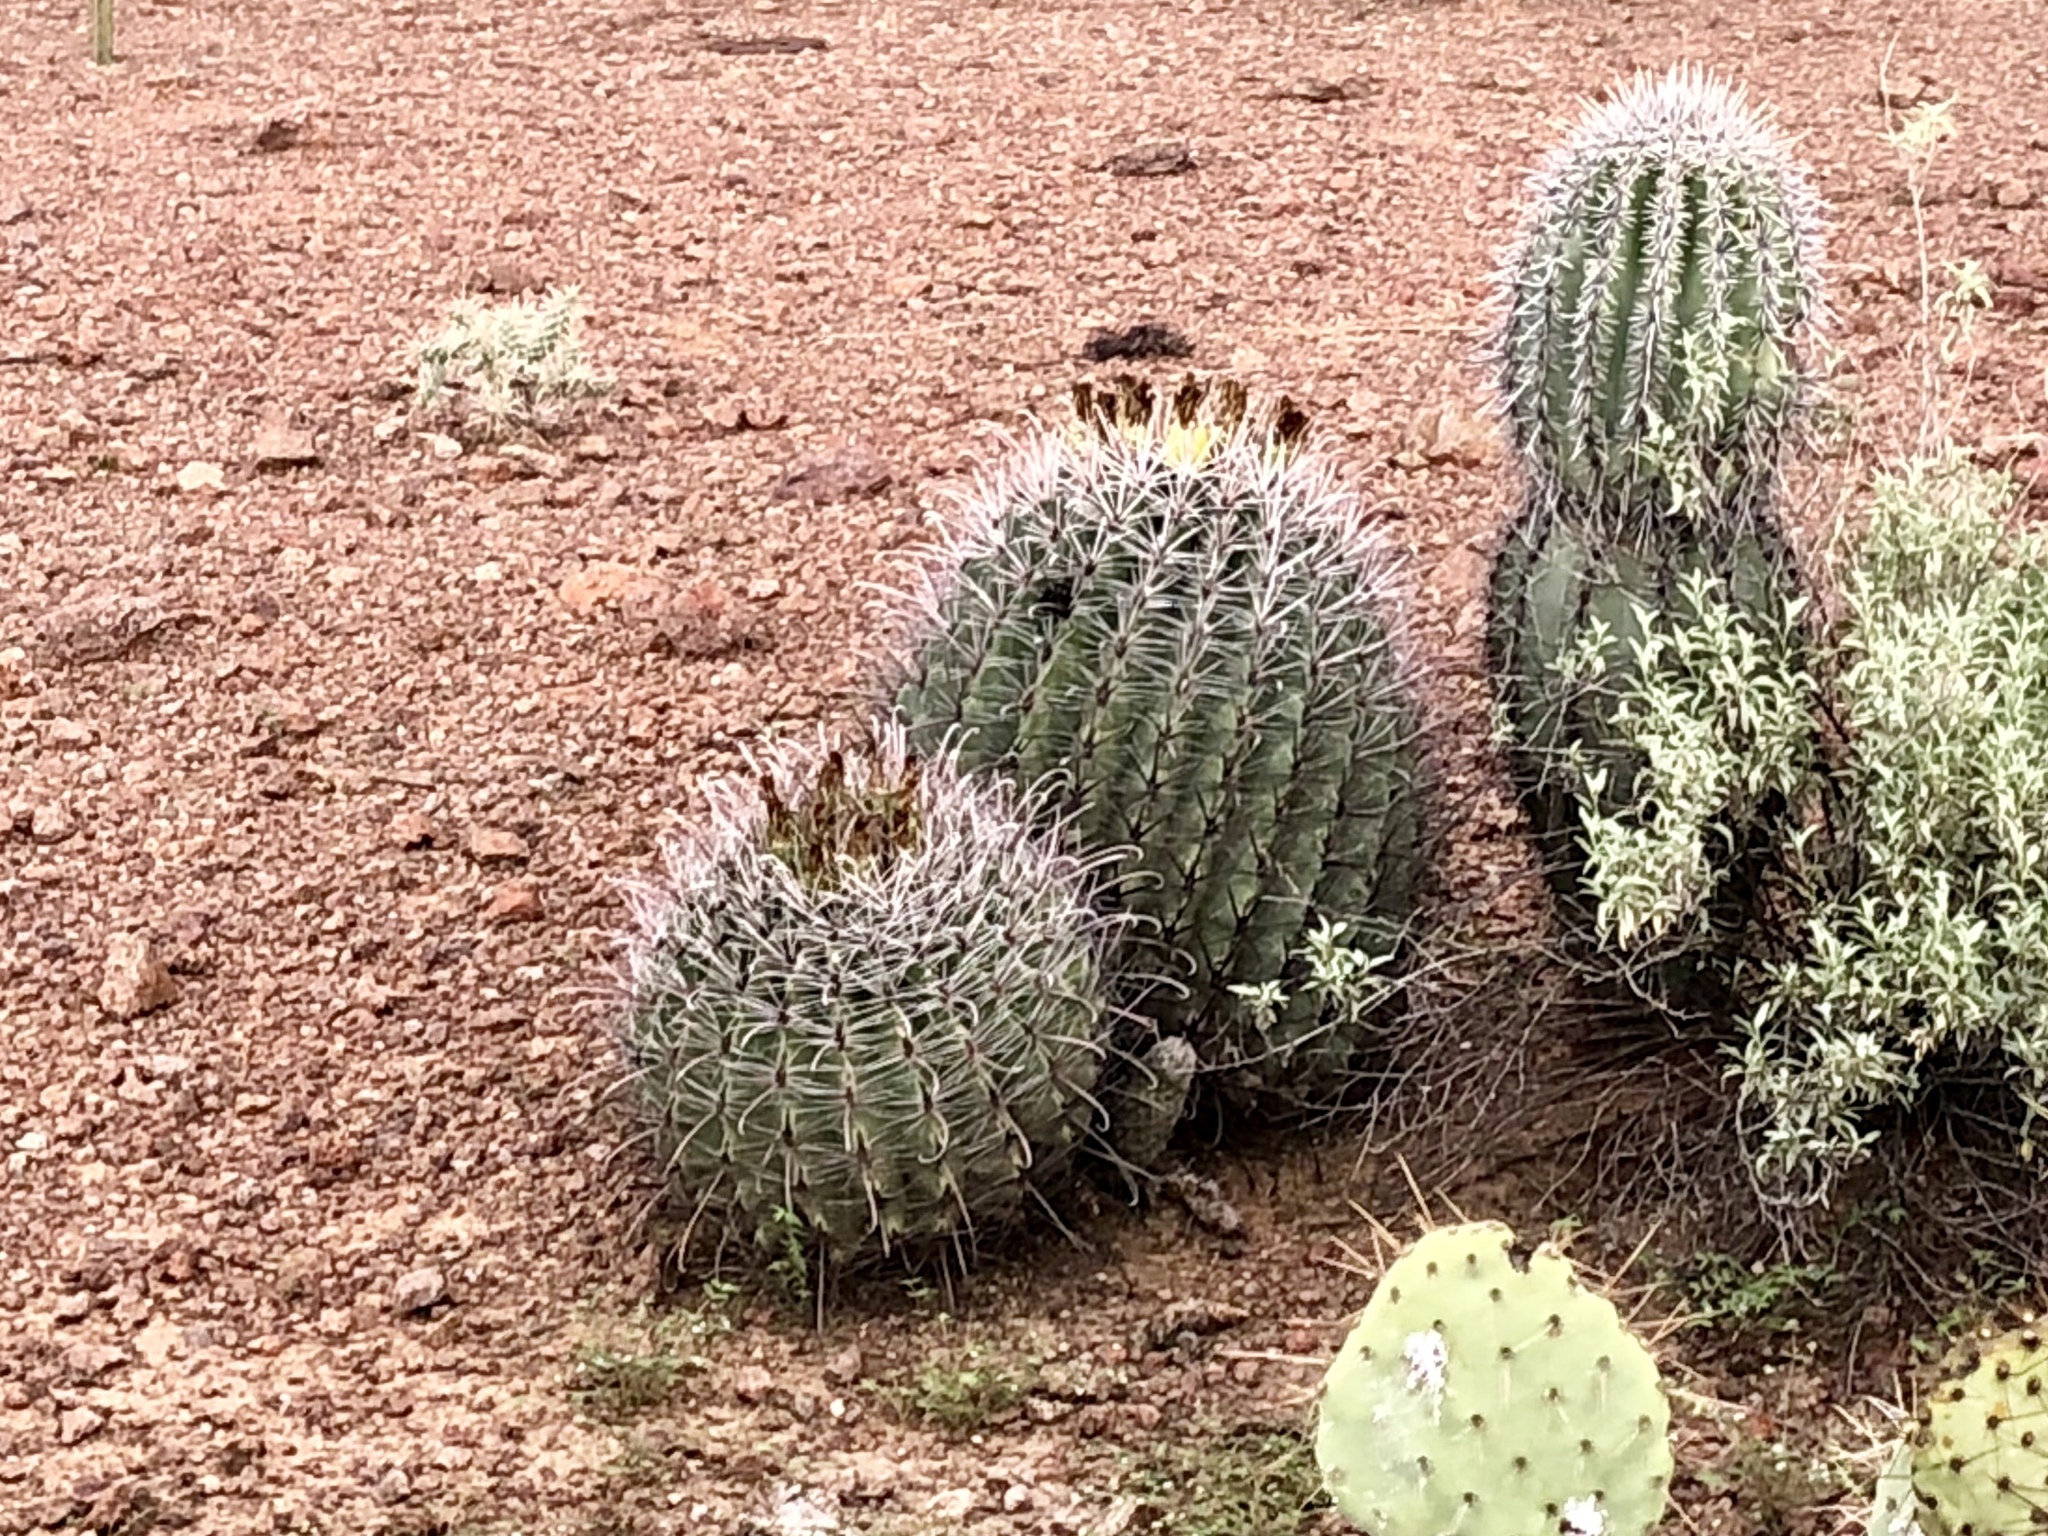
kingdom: Plantae
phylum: Tracheophyta
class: Magnoliopsida
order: Caryophyllales
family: Cactaceae
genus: Ferocactus
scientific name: Ferocactus wislizeni
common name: Candy barrel cactus
